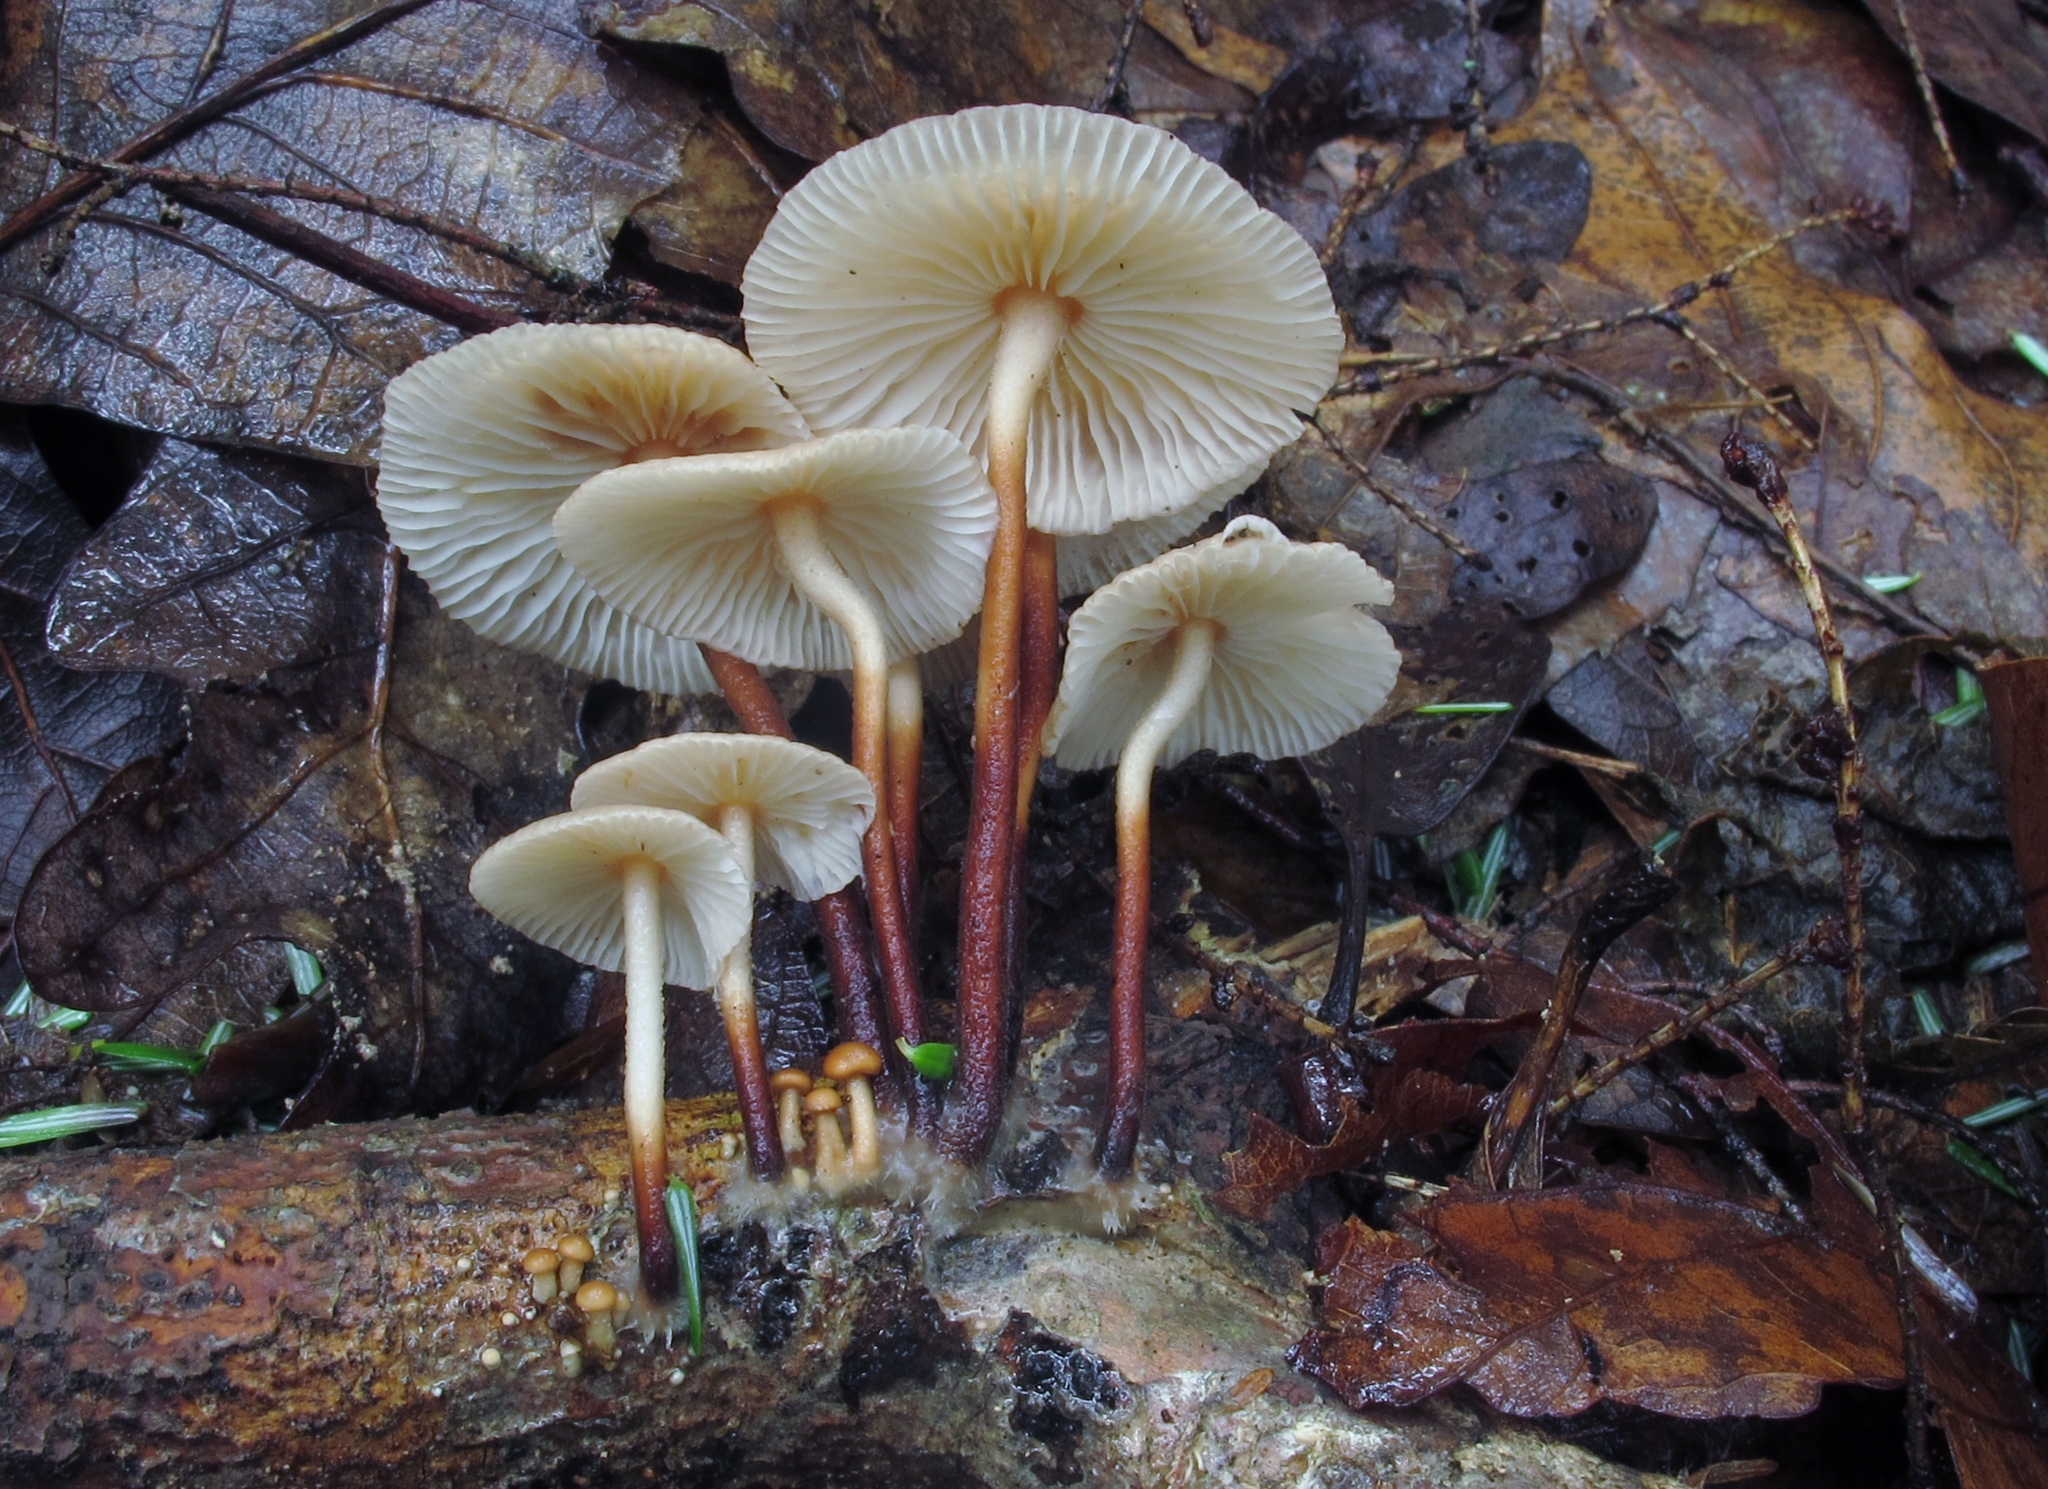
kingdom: Fungi
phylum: Basidiomycota
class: Agaricomycetes
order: Agaricales
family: Marasmiaceae
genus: Marasmius
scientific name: Marasmius cohaerens
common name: Bristled parachute
